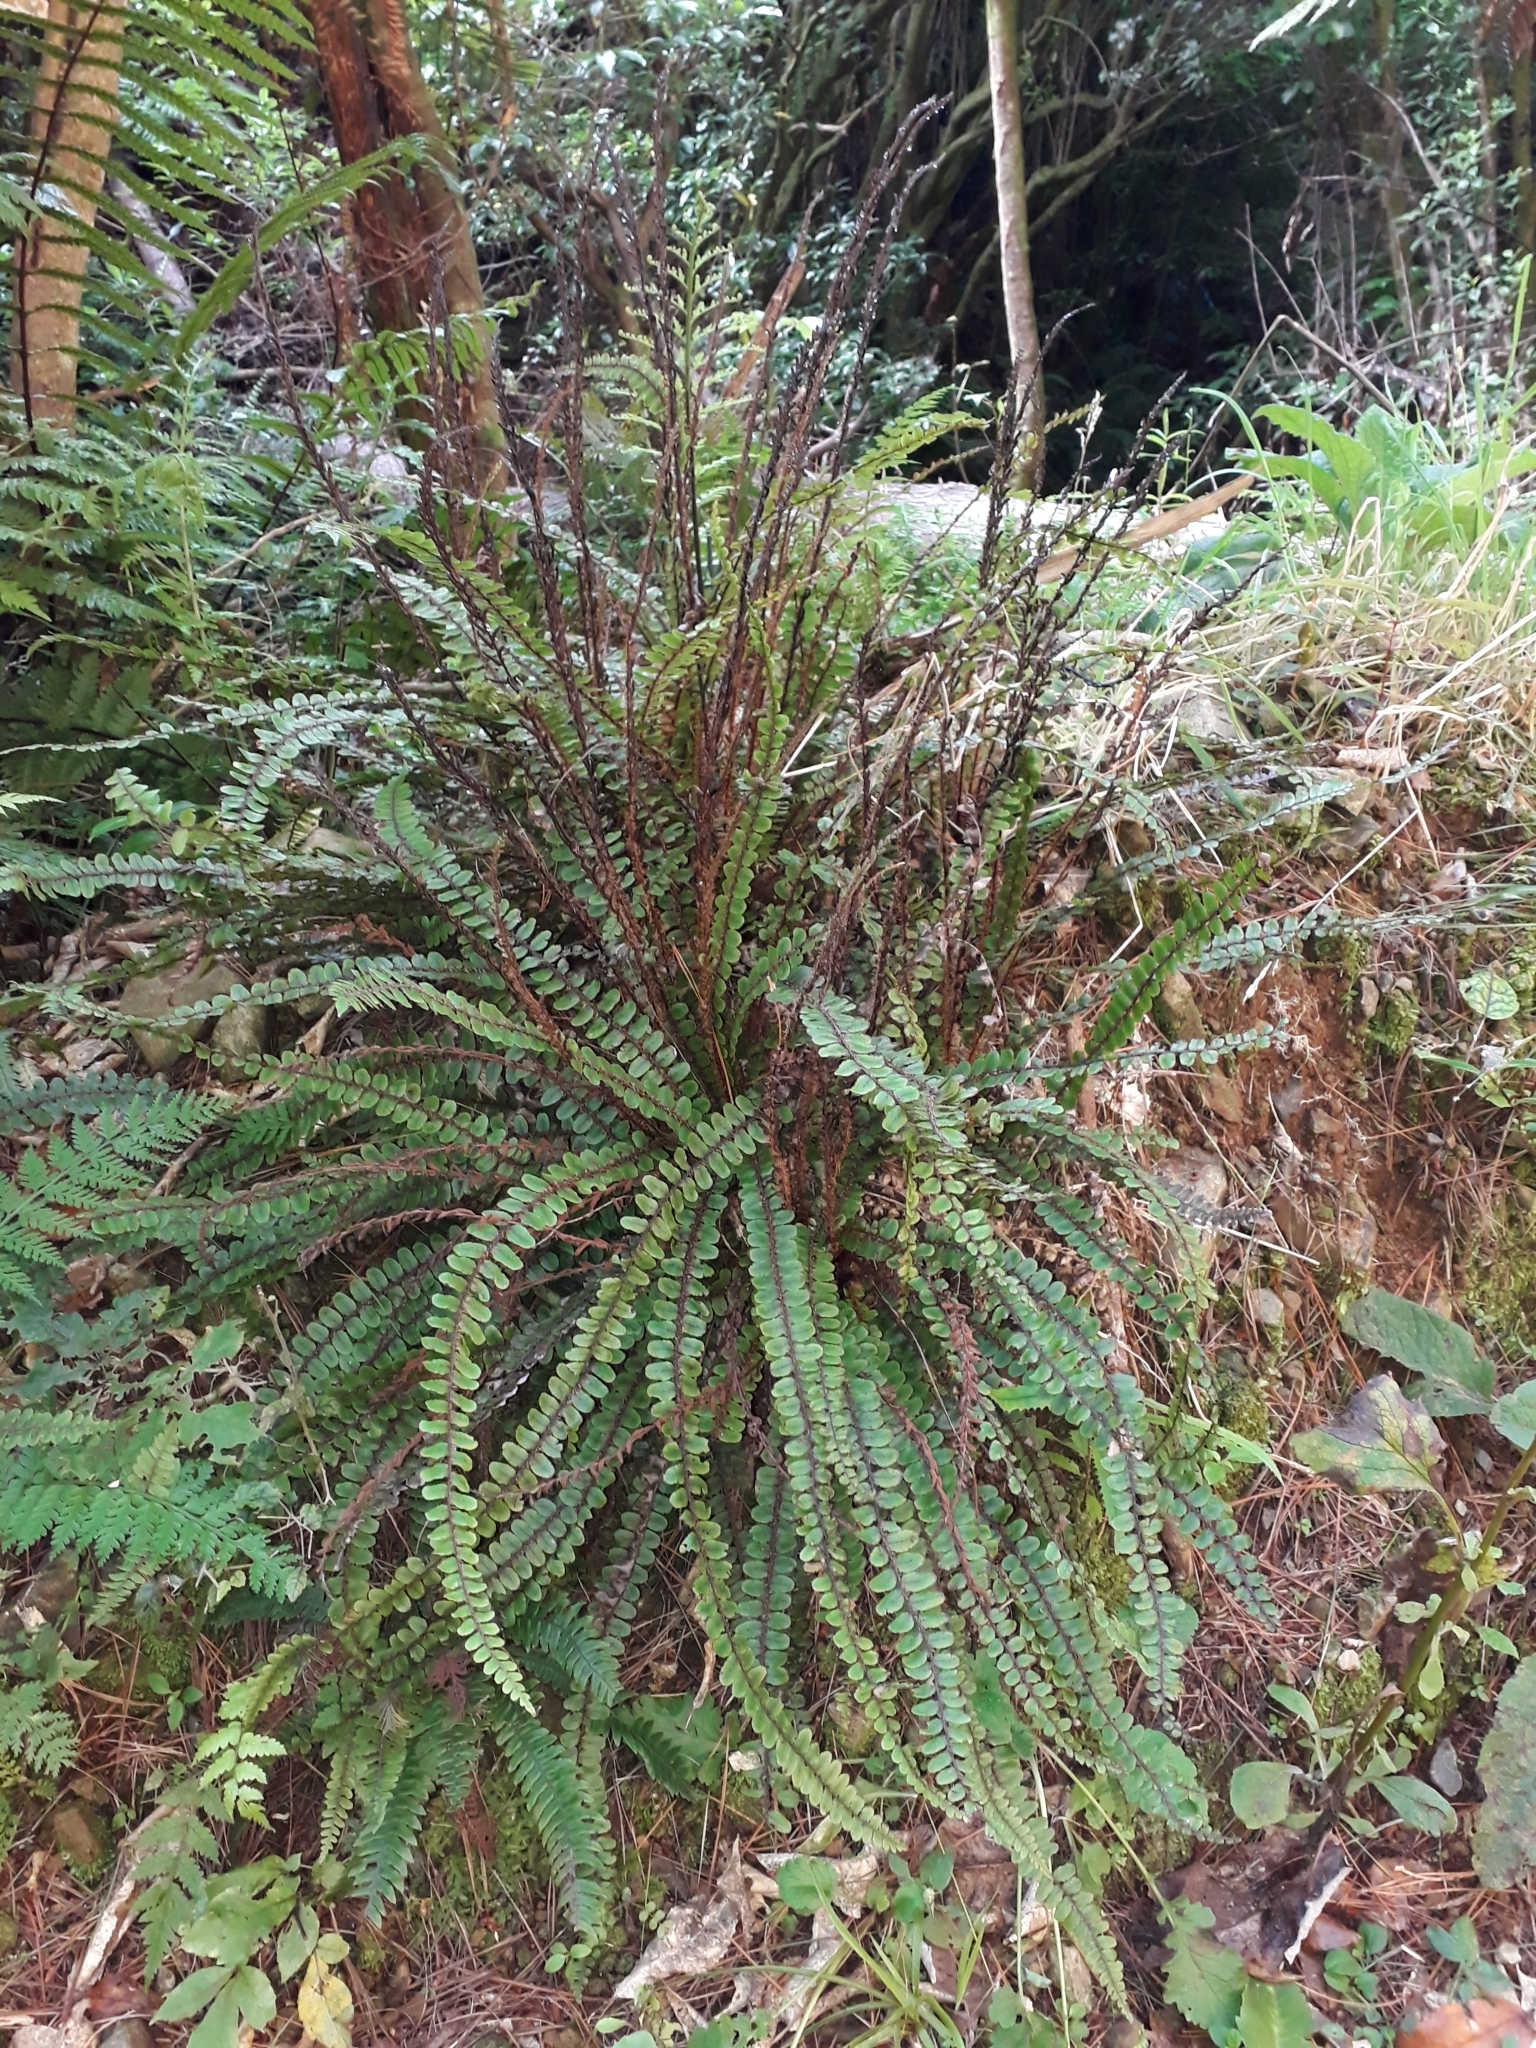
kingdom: Plantae
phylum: Tracheophyta
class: Polypodiopsida
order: Polypodiales
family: Blechnaceae
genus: Cranfillia
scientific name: Cranfillia fluviatilis
